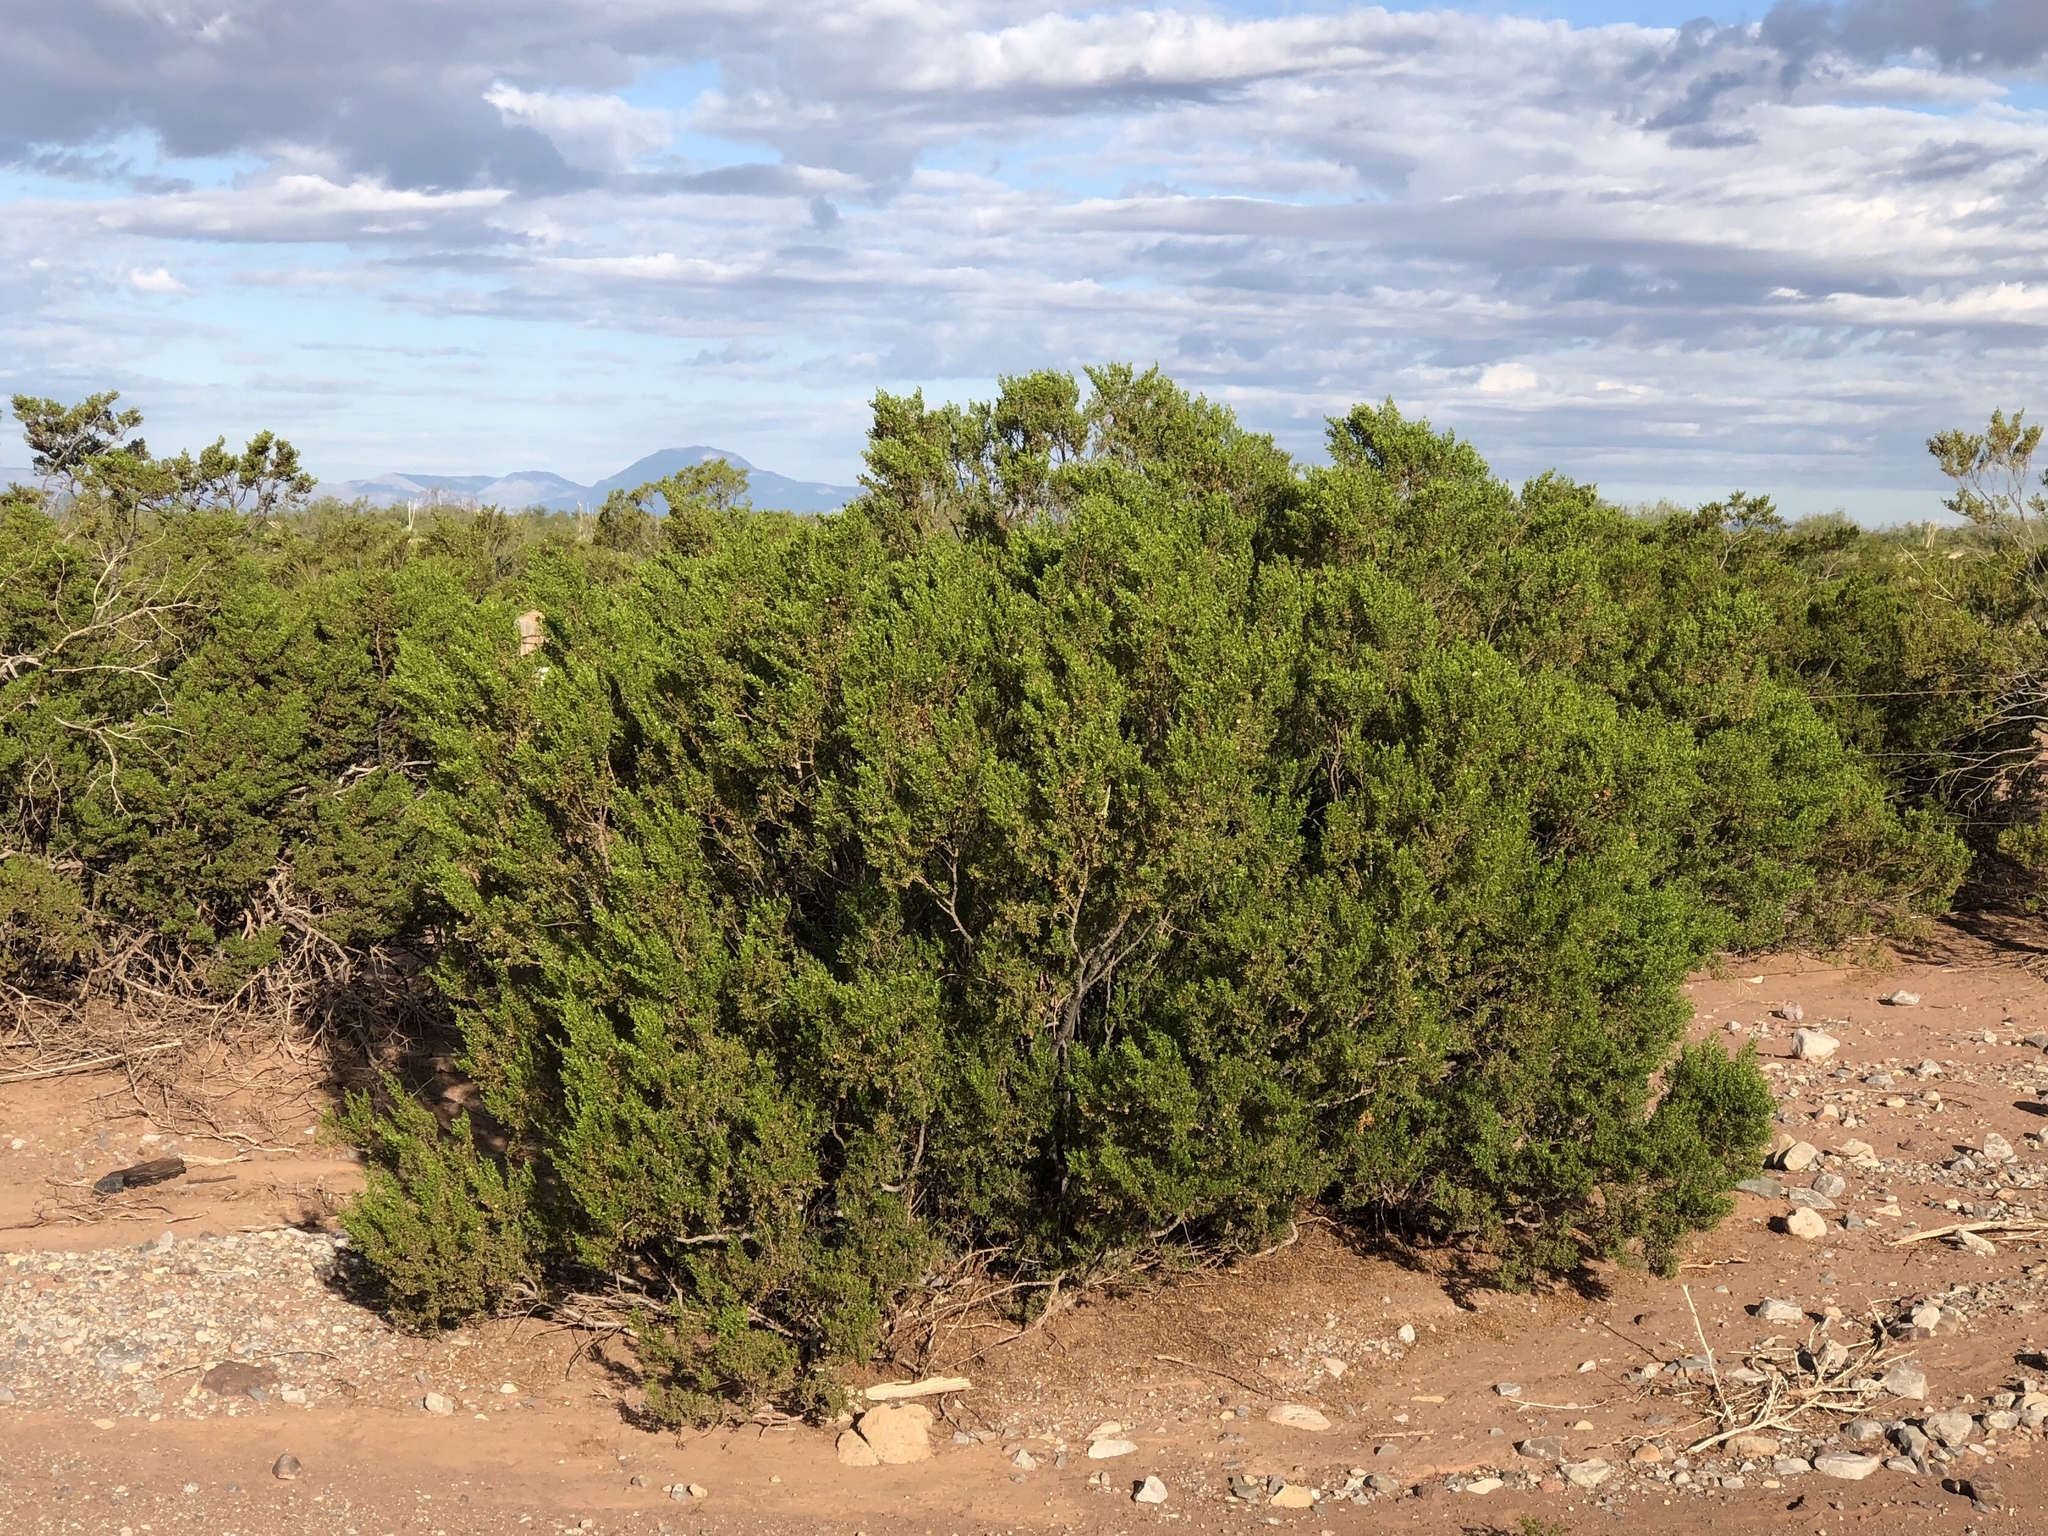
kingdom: Plantae
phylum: Tracheophyta
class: Magnoliopsida
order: Zygophyllales
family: Zygophyllaceae
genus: Larrea
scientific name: Larrea tridentata
